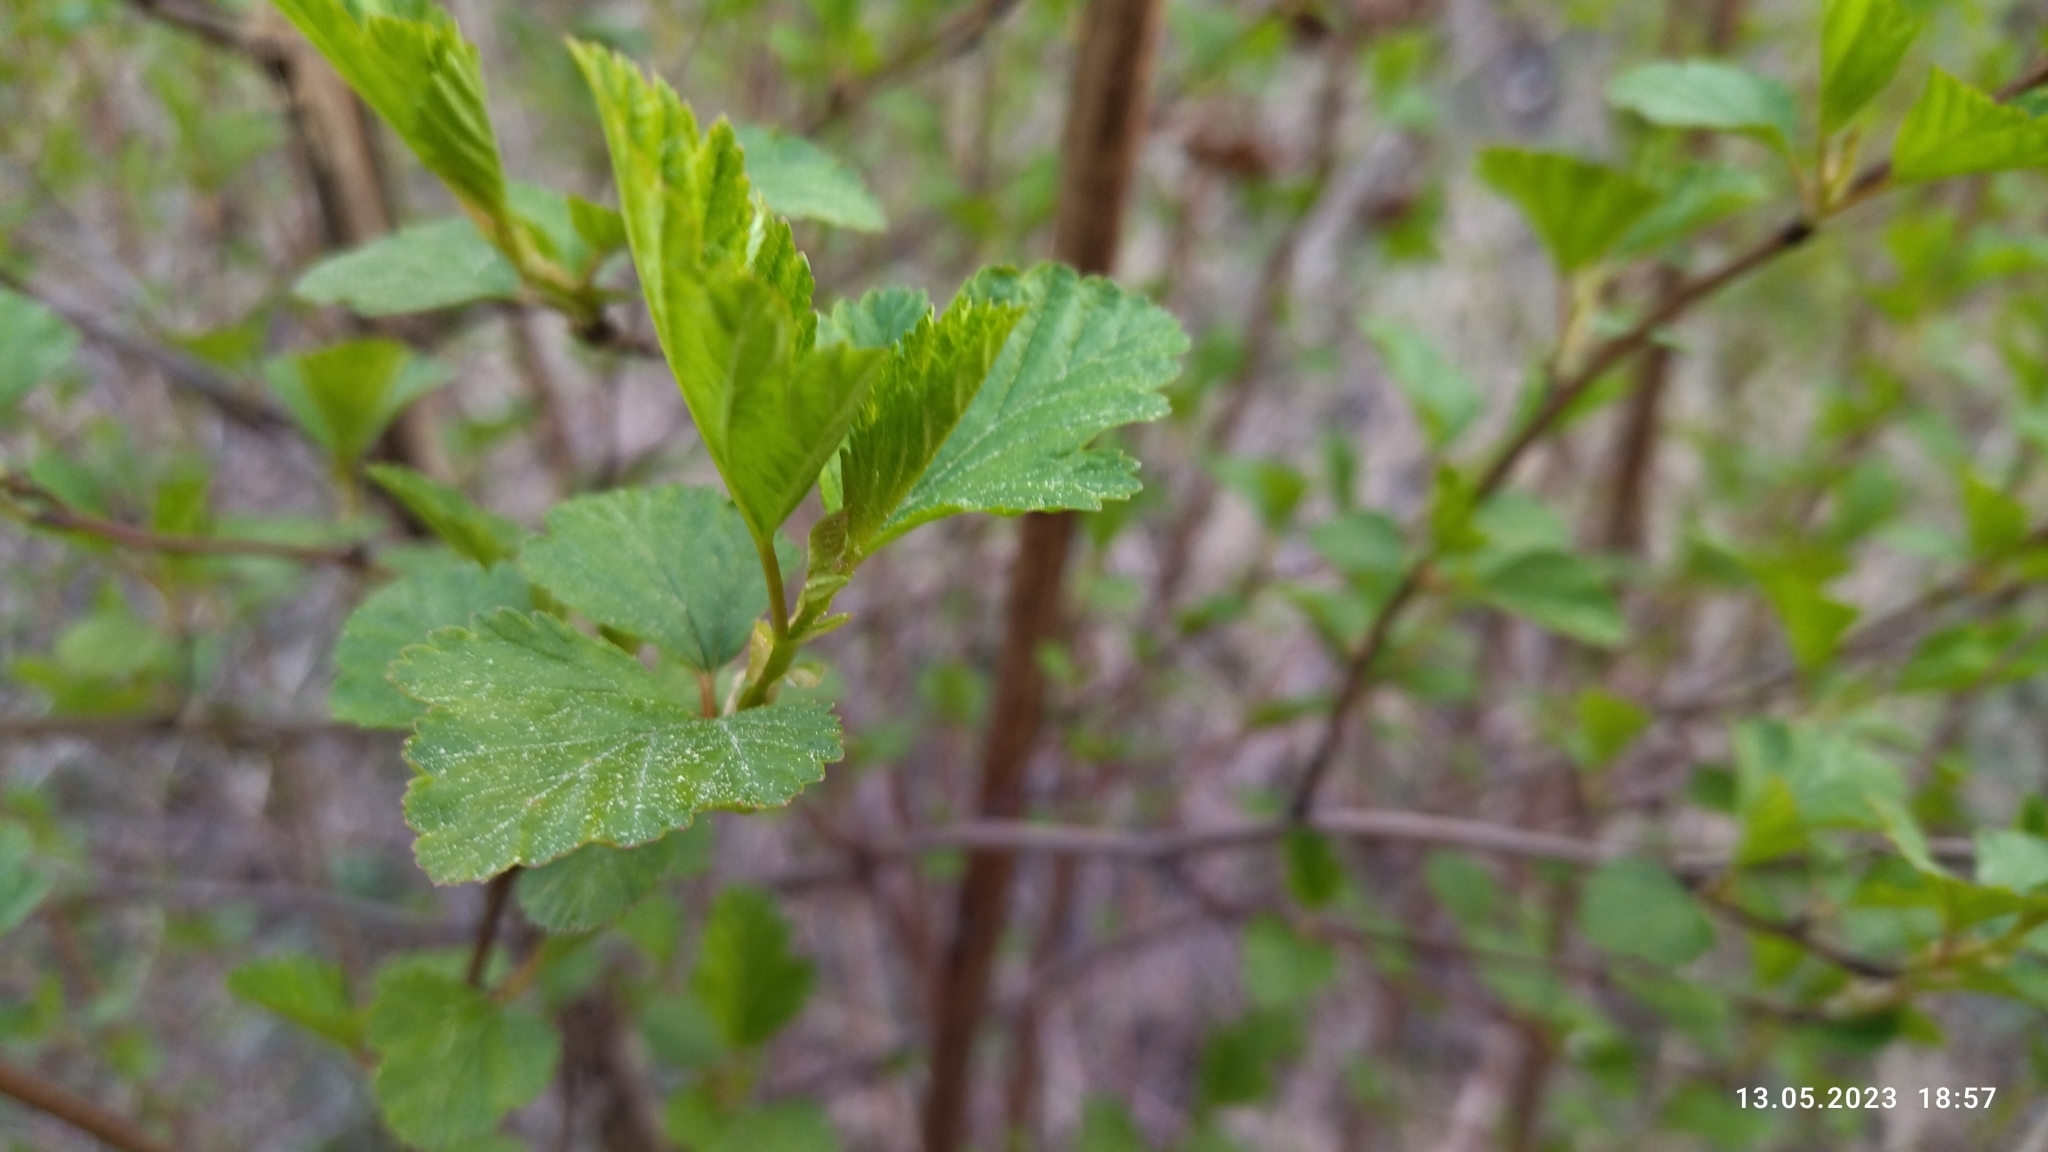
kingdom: Plantae
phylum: Tracheophyta
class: Magnoliopsida
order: Rosales
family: Rosaceae
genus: Physocarpus
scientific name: Physocarpus opulifolius
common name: Ninebark
